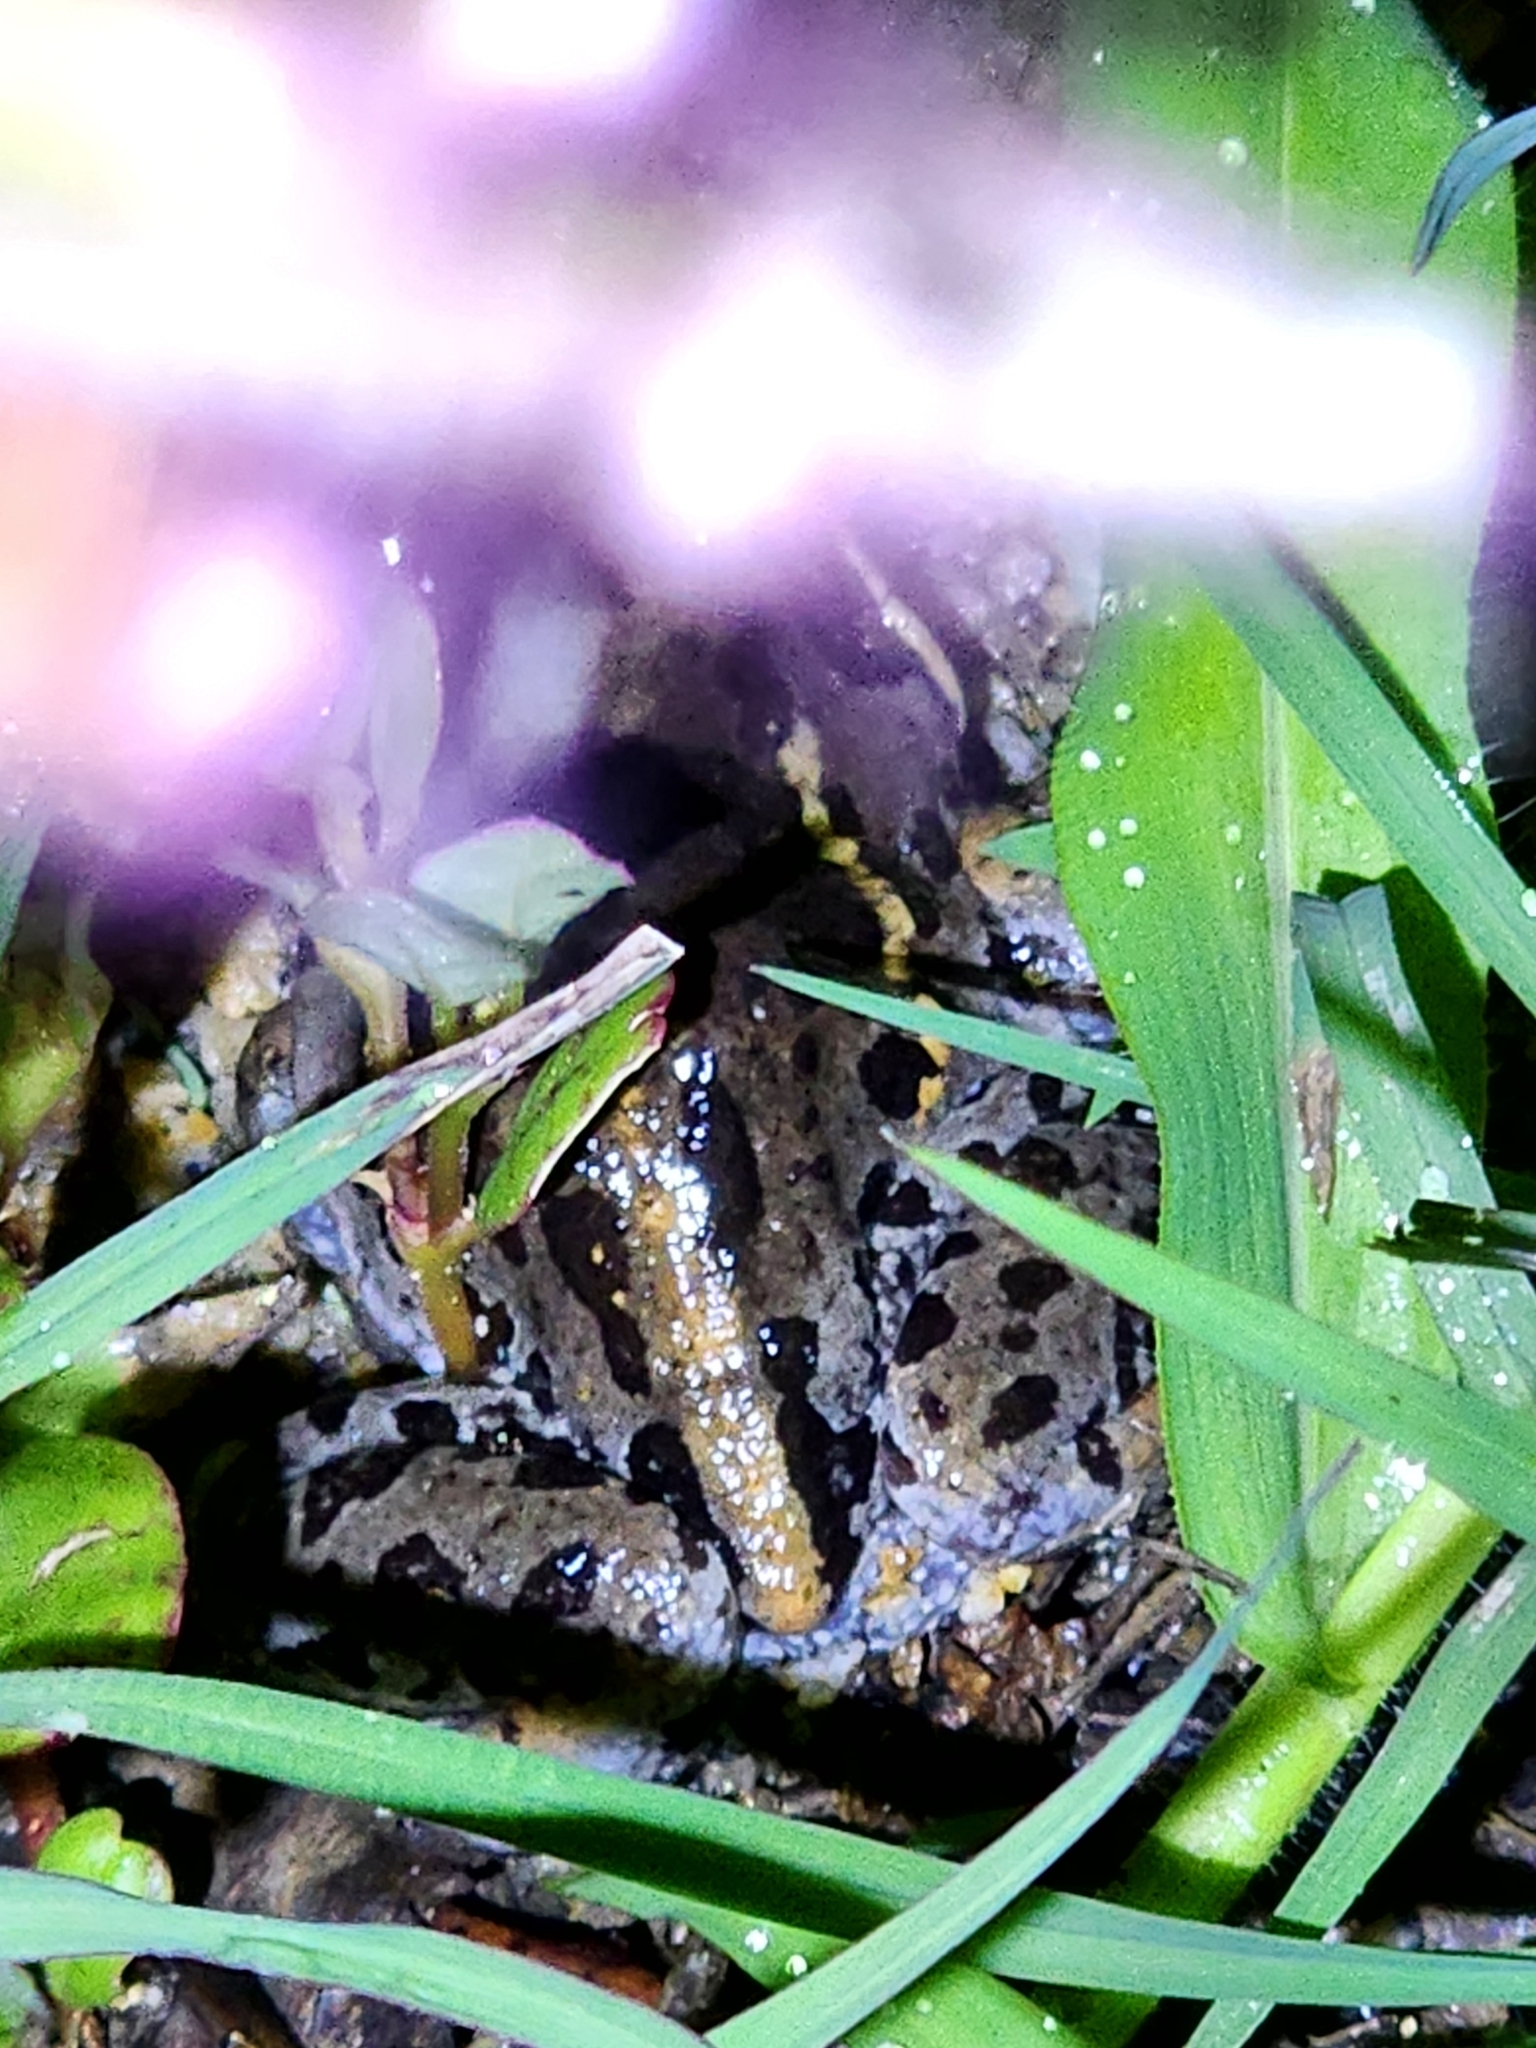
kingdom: Animalia
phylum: Chordata
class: Amphibia
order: Anura
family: Limnodynastidae
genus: Limnodynastes
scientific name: Limnodynastes salmini
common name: Salmon-striped frog
